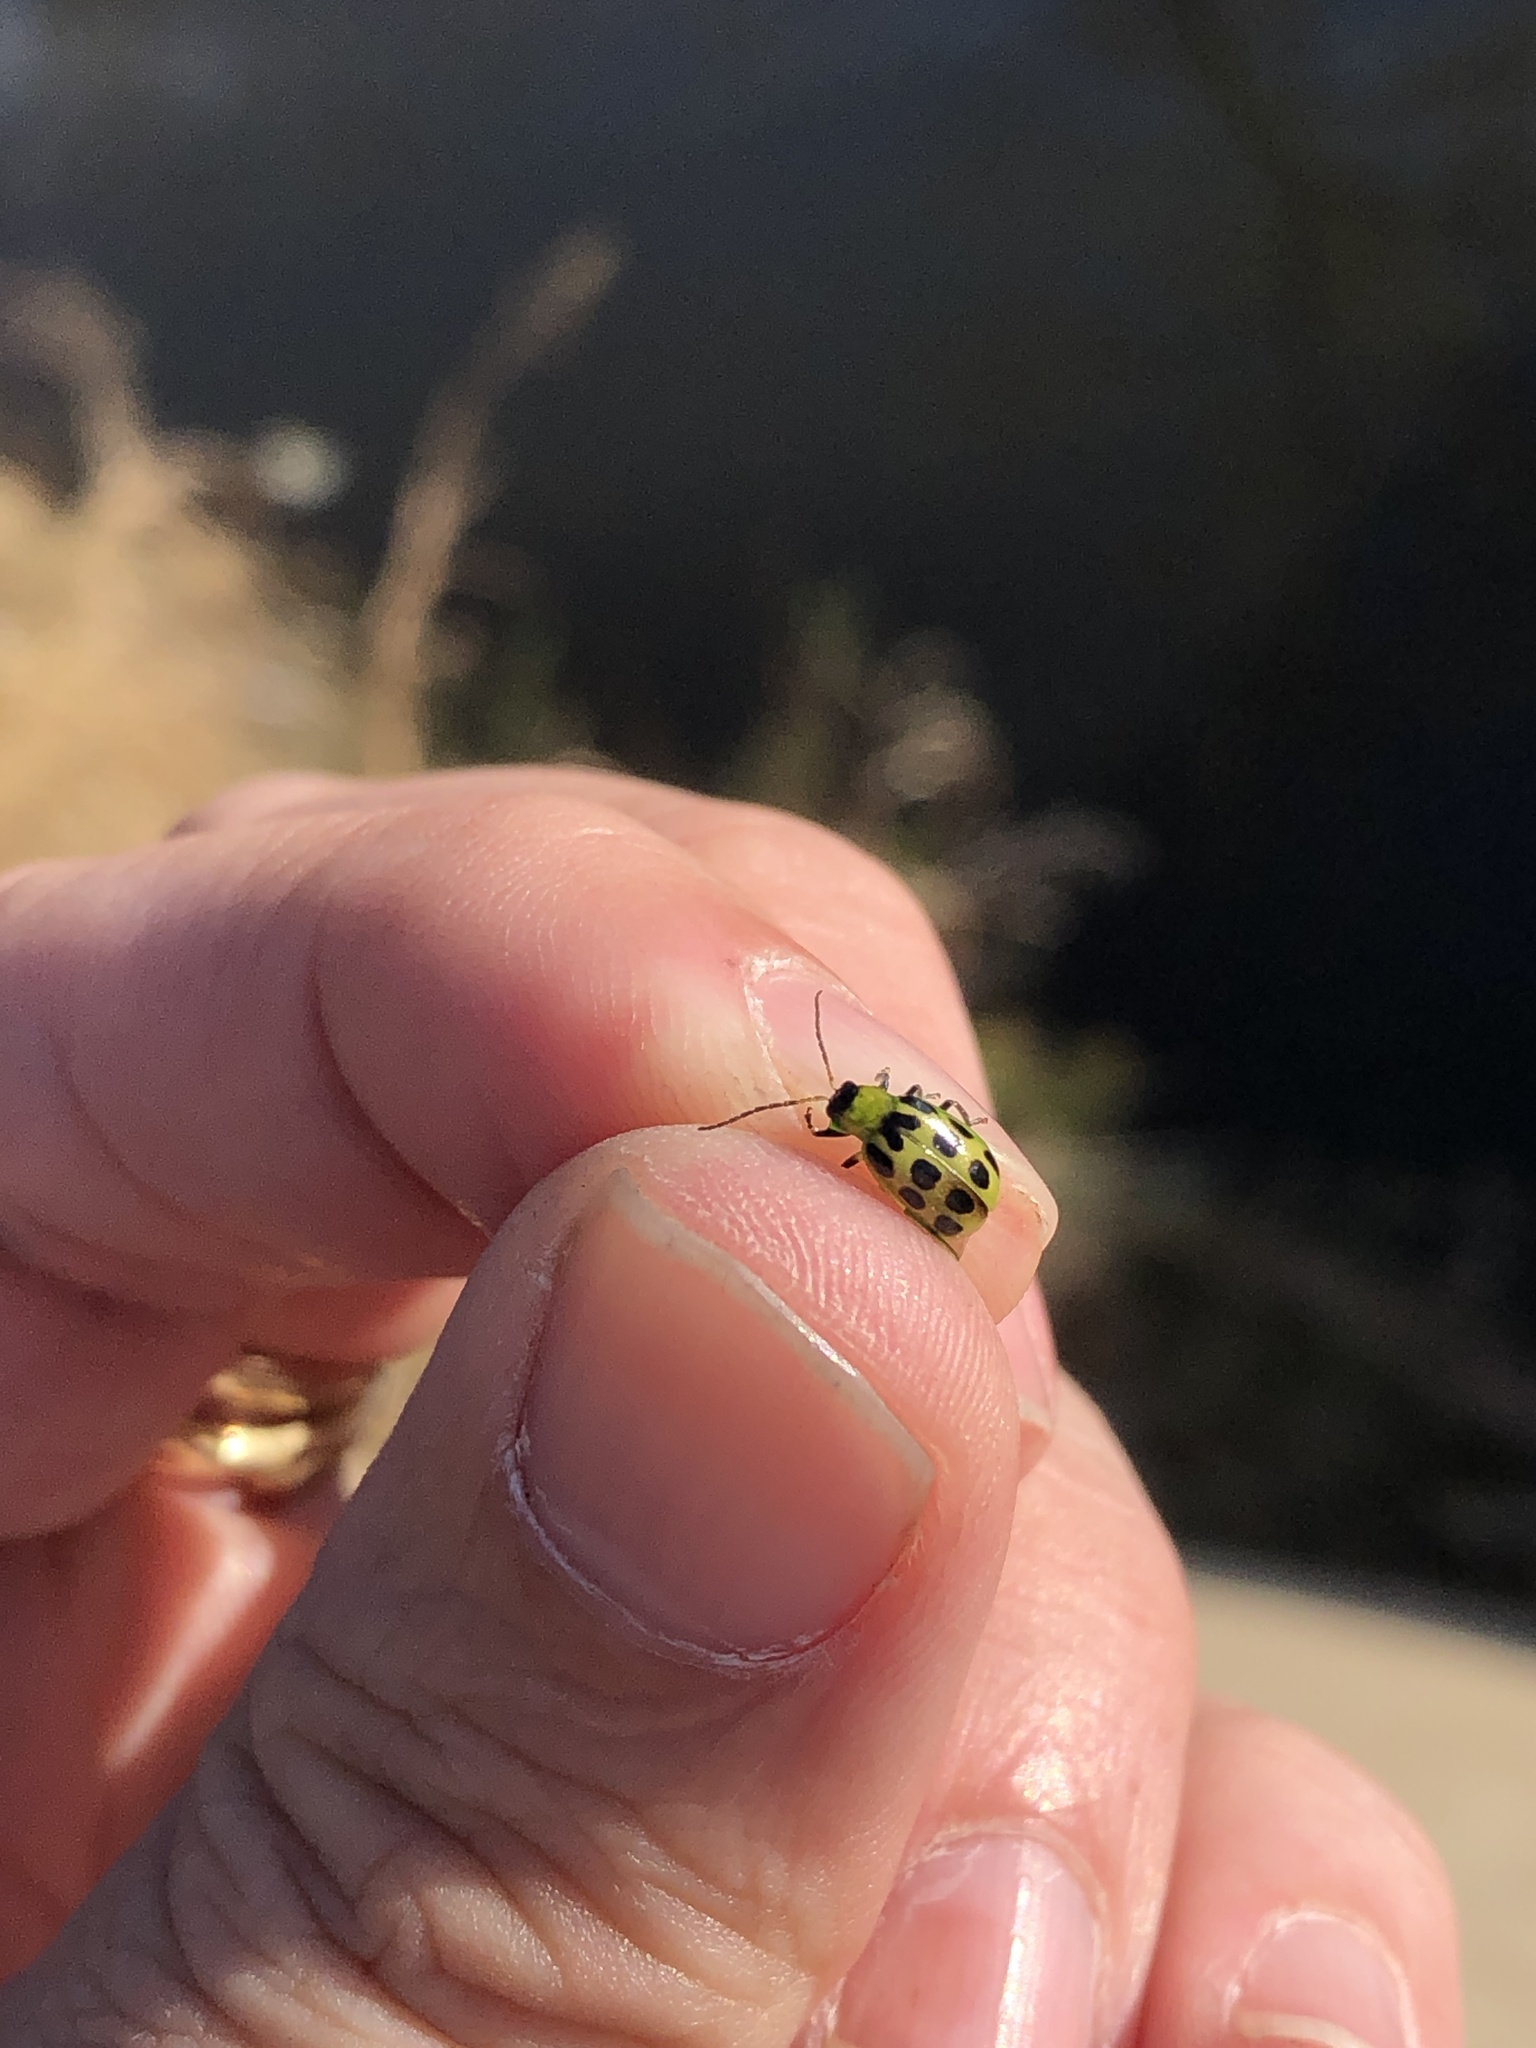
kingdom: Animalia
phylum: Arthropoda
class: Insecta
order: Coleoptera
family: Chrysomelidae
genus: Diabrotica
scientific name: Diabrotica undecimpunctata
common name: Spotted cucumber beetle
